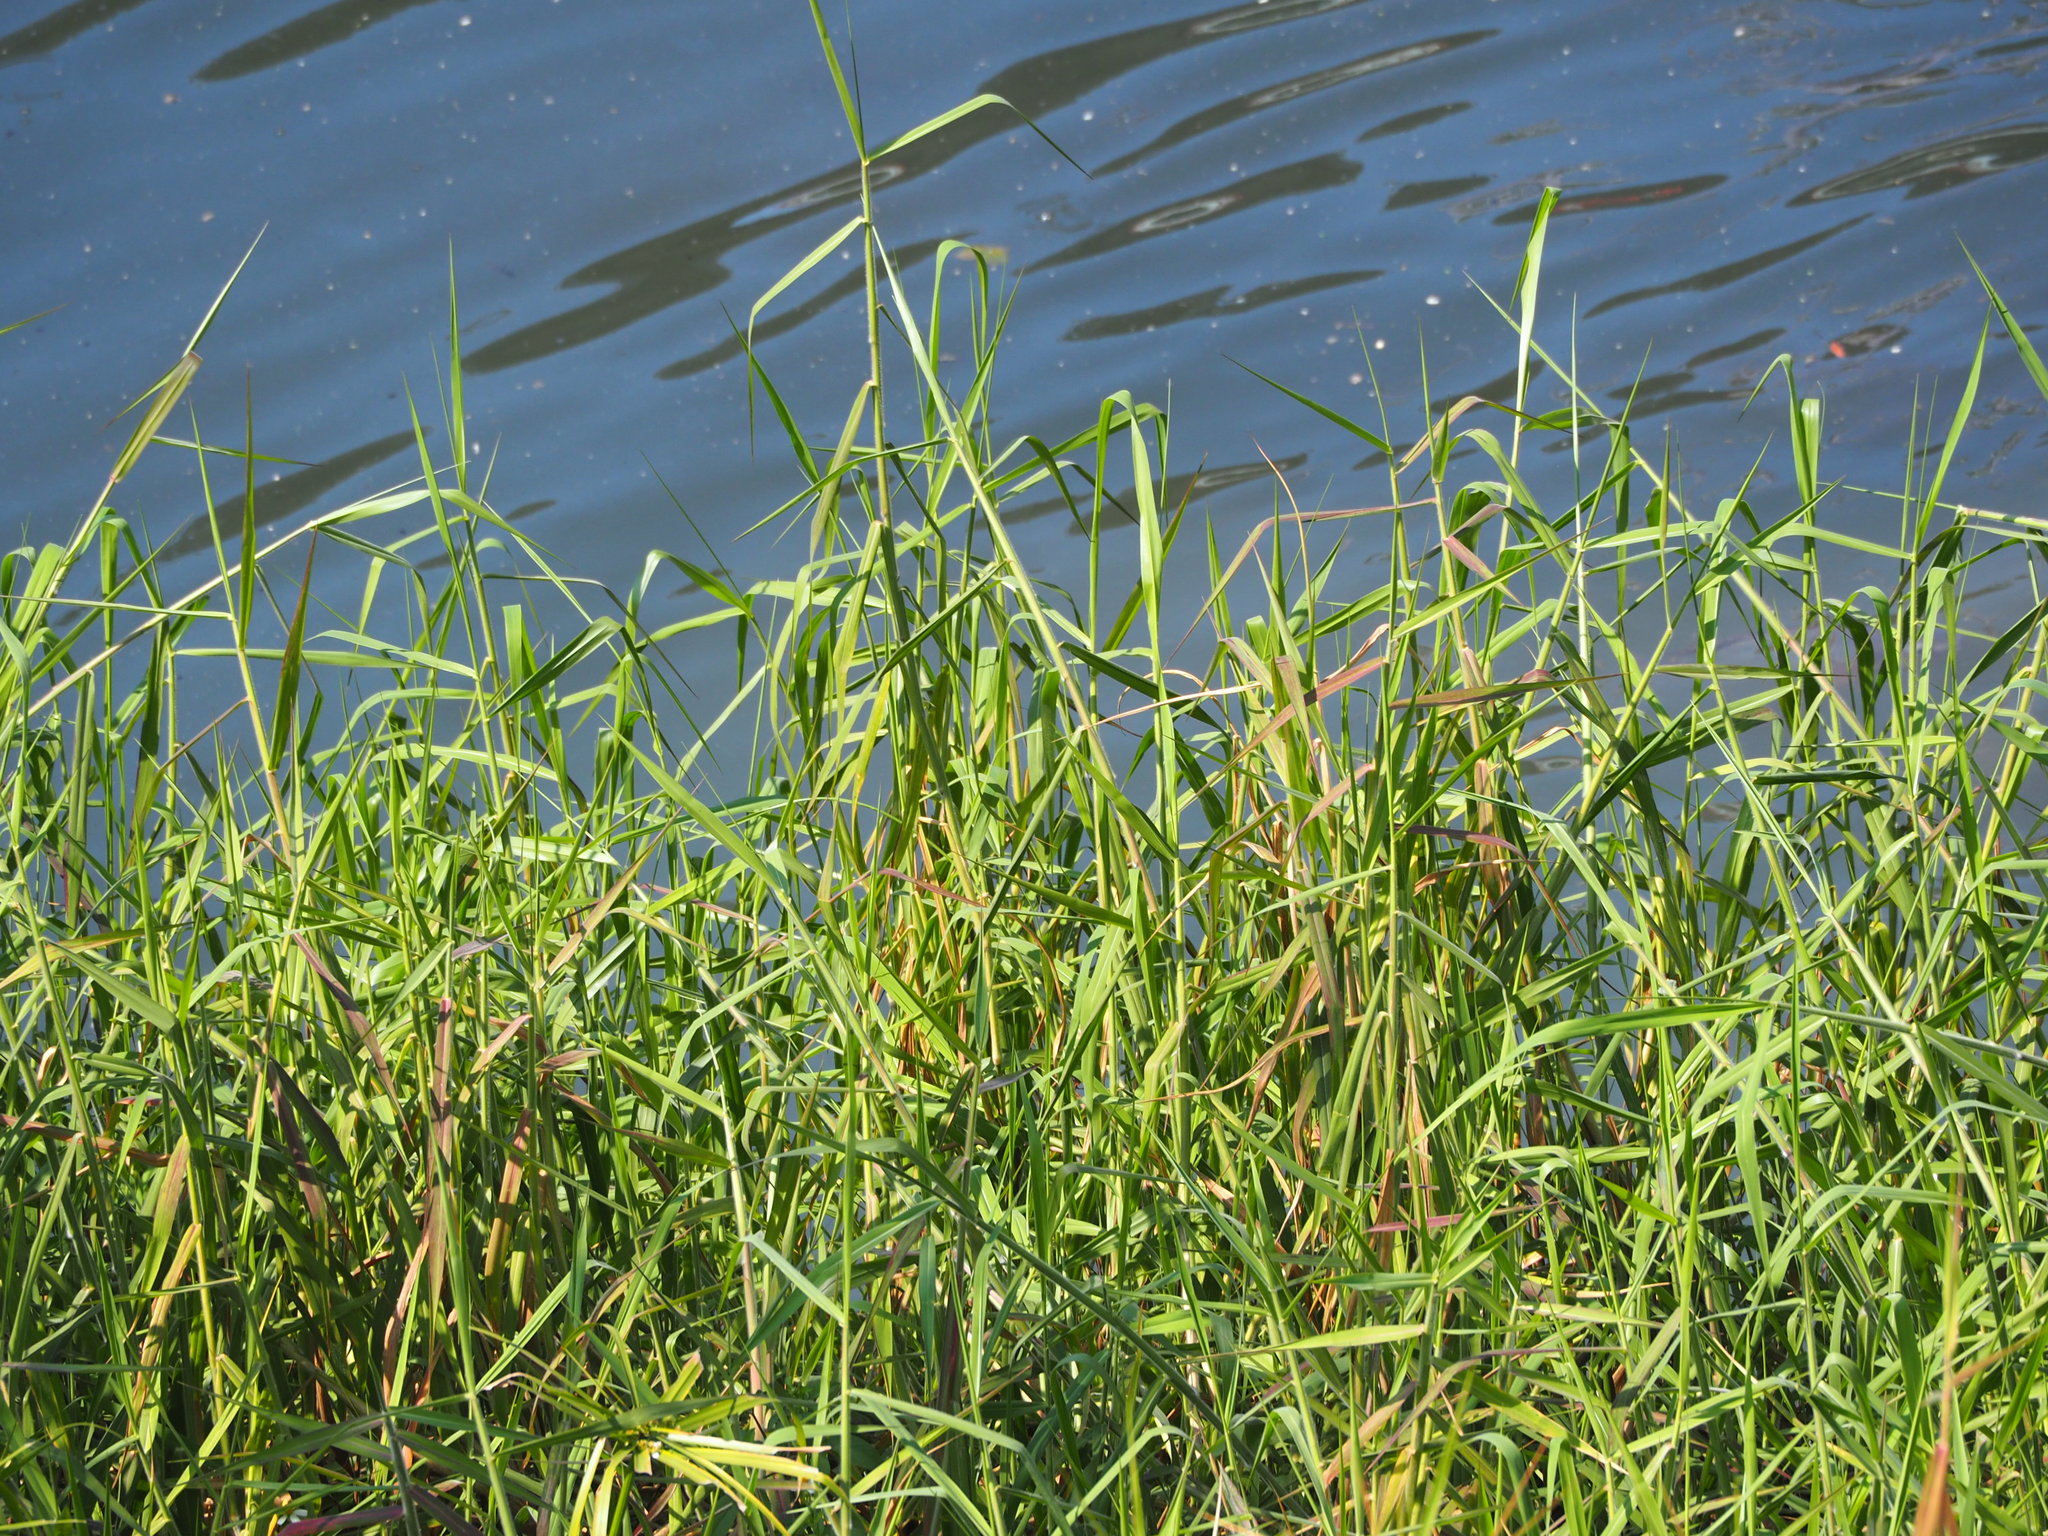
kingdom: Plantae
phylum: Tracheophyta
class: Liliopsida
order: Poales
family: Poaceae
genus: Urochloa
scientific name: Urochloa mutica
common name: Para grass
